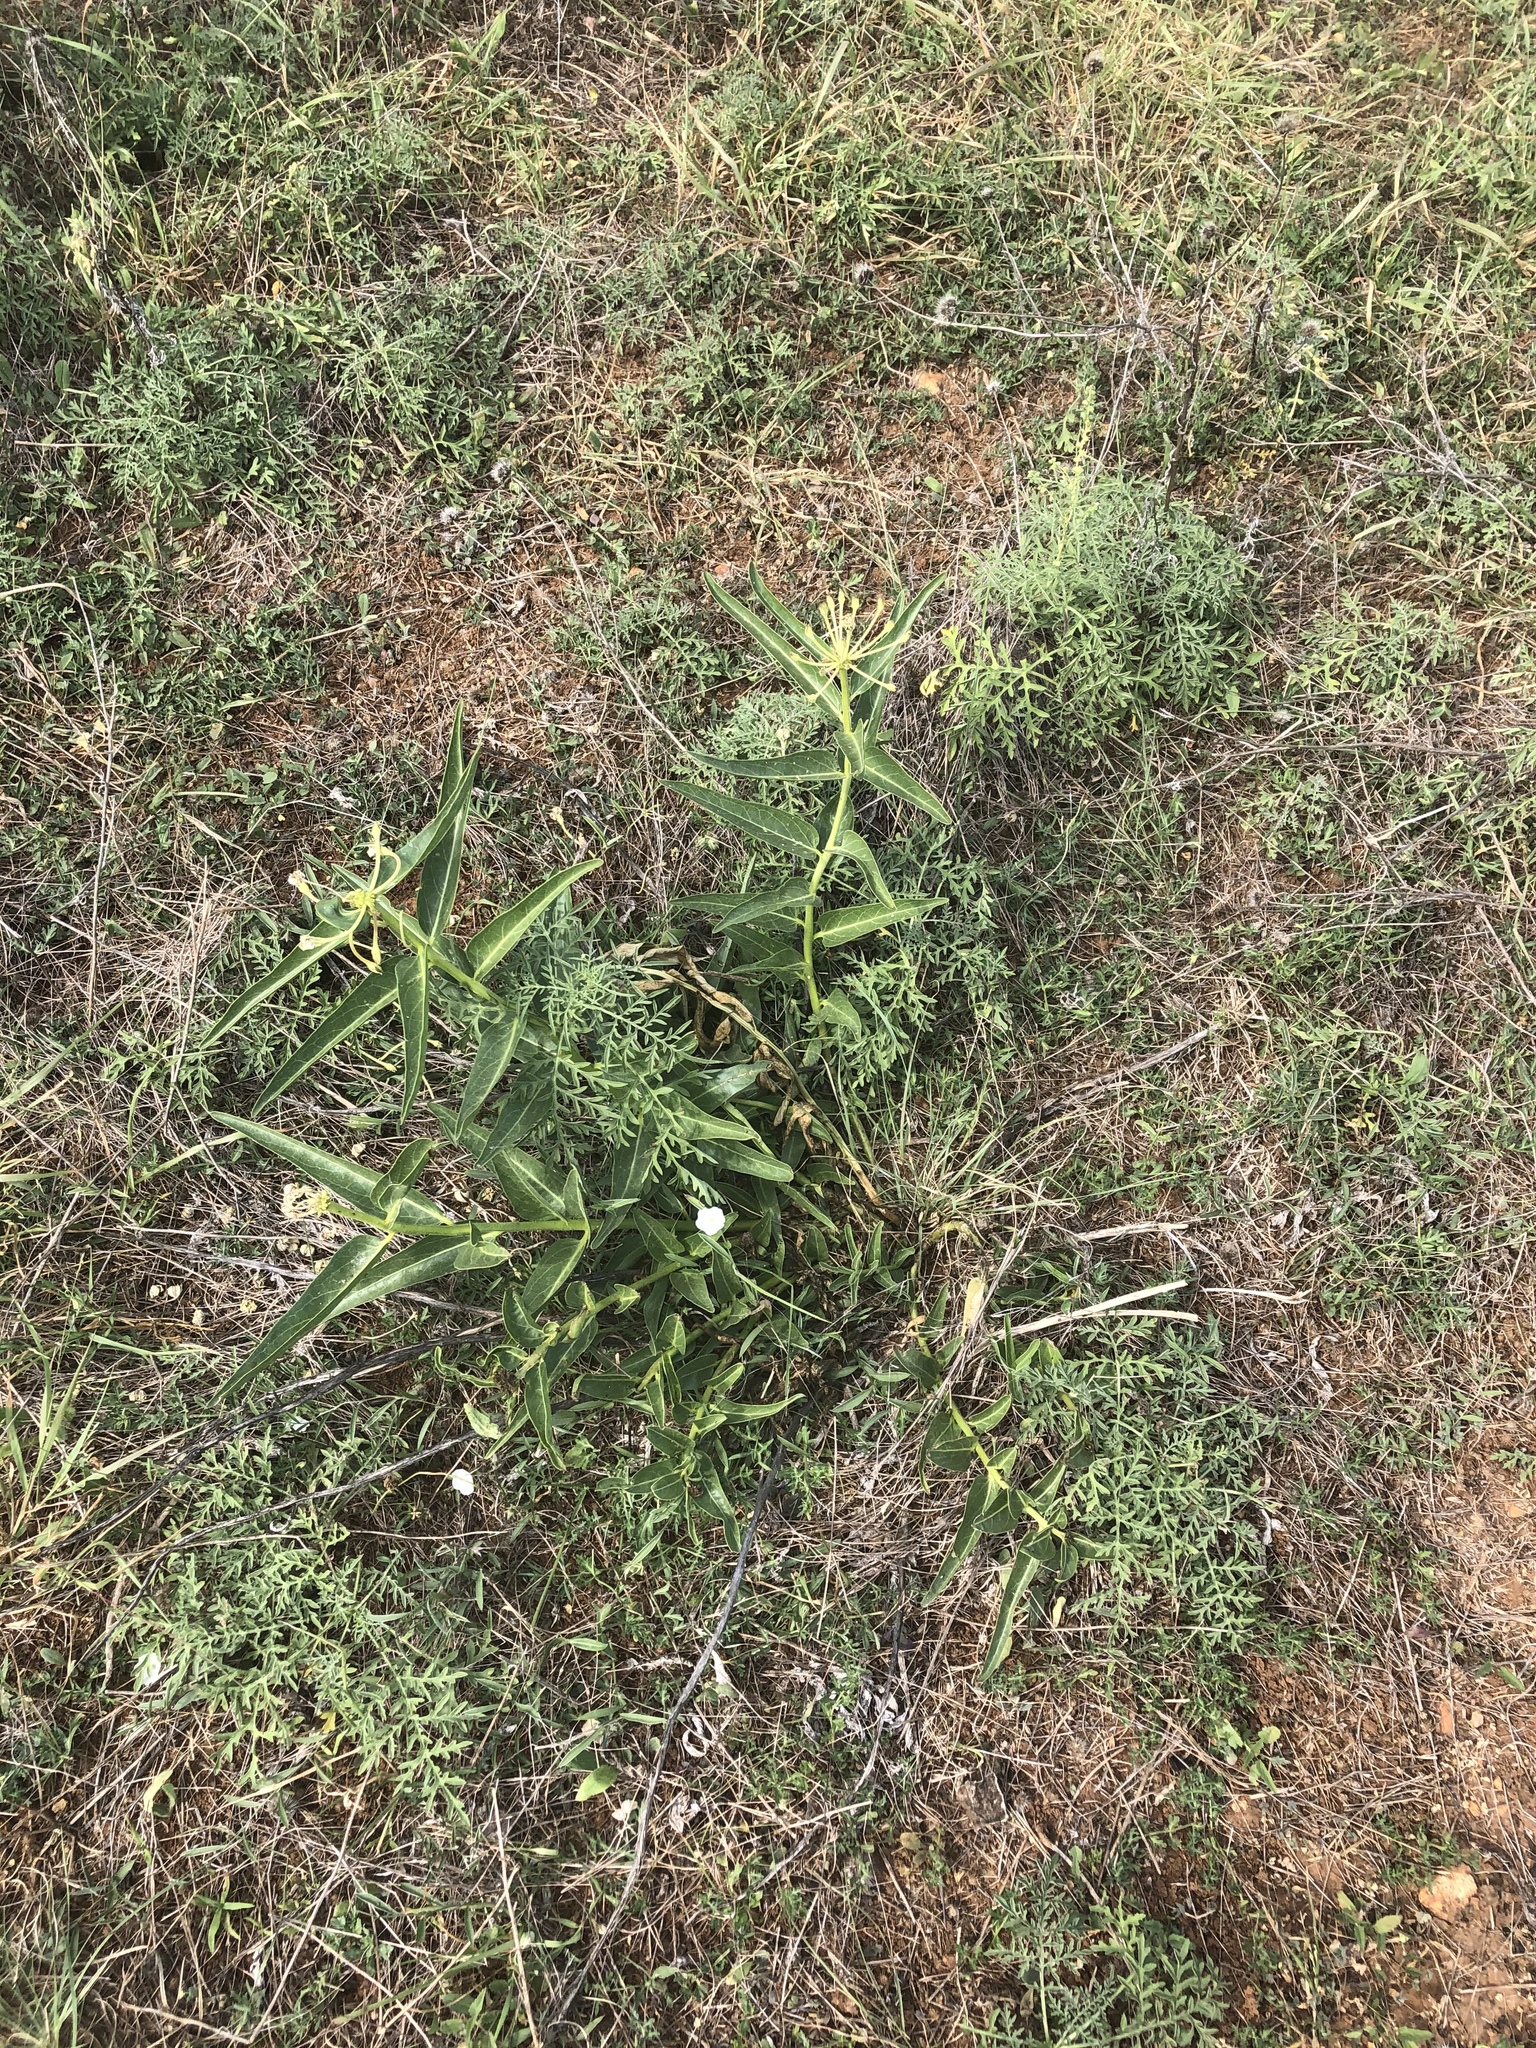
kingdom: Plantae
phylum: Tracheophyta
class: Magnoliopsida
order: Gentianales
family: Apocynaceae
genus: Asclepias
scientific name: Asclepias asperula
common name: Antelope horns
